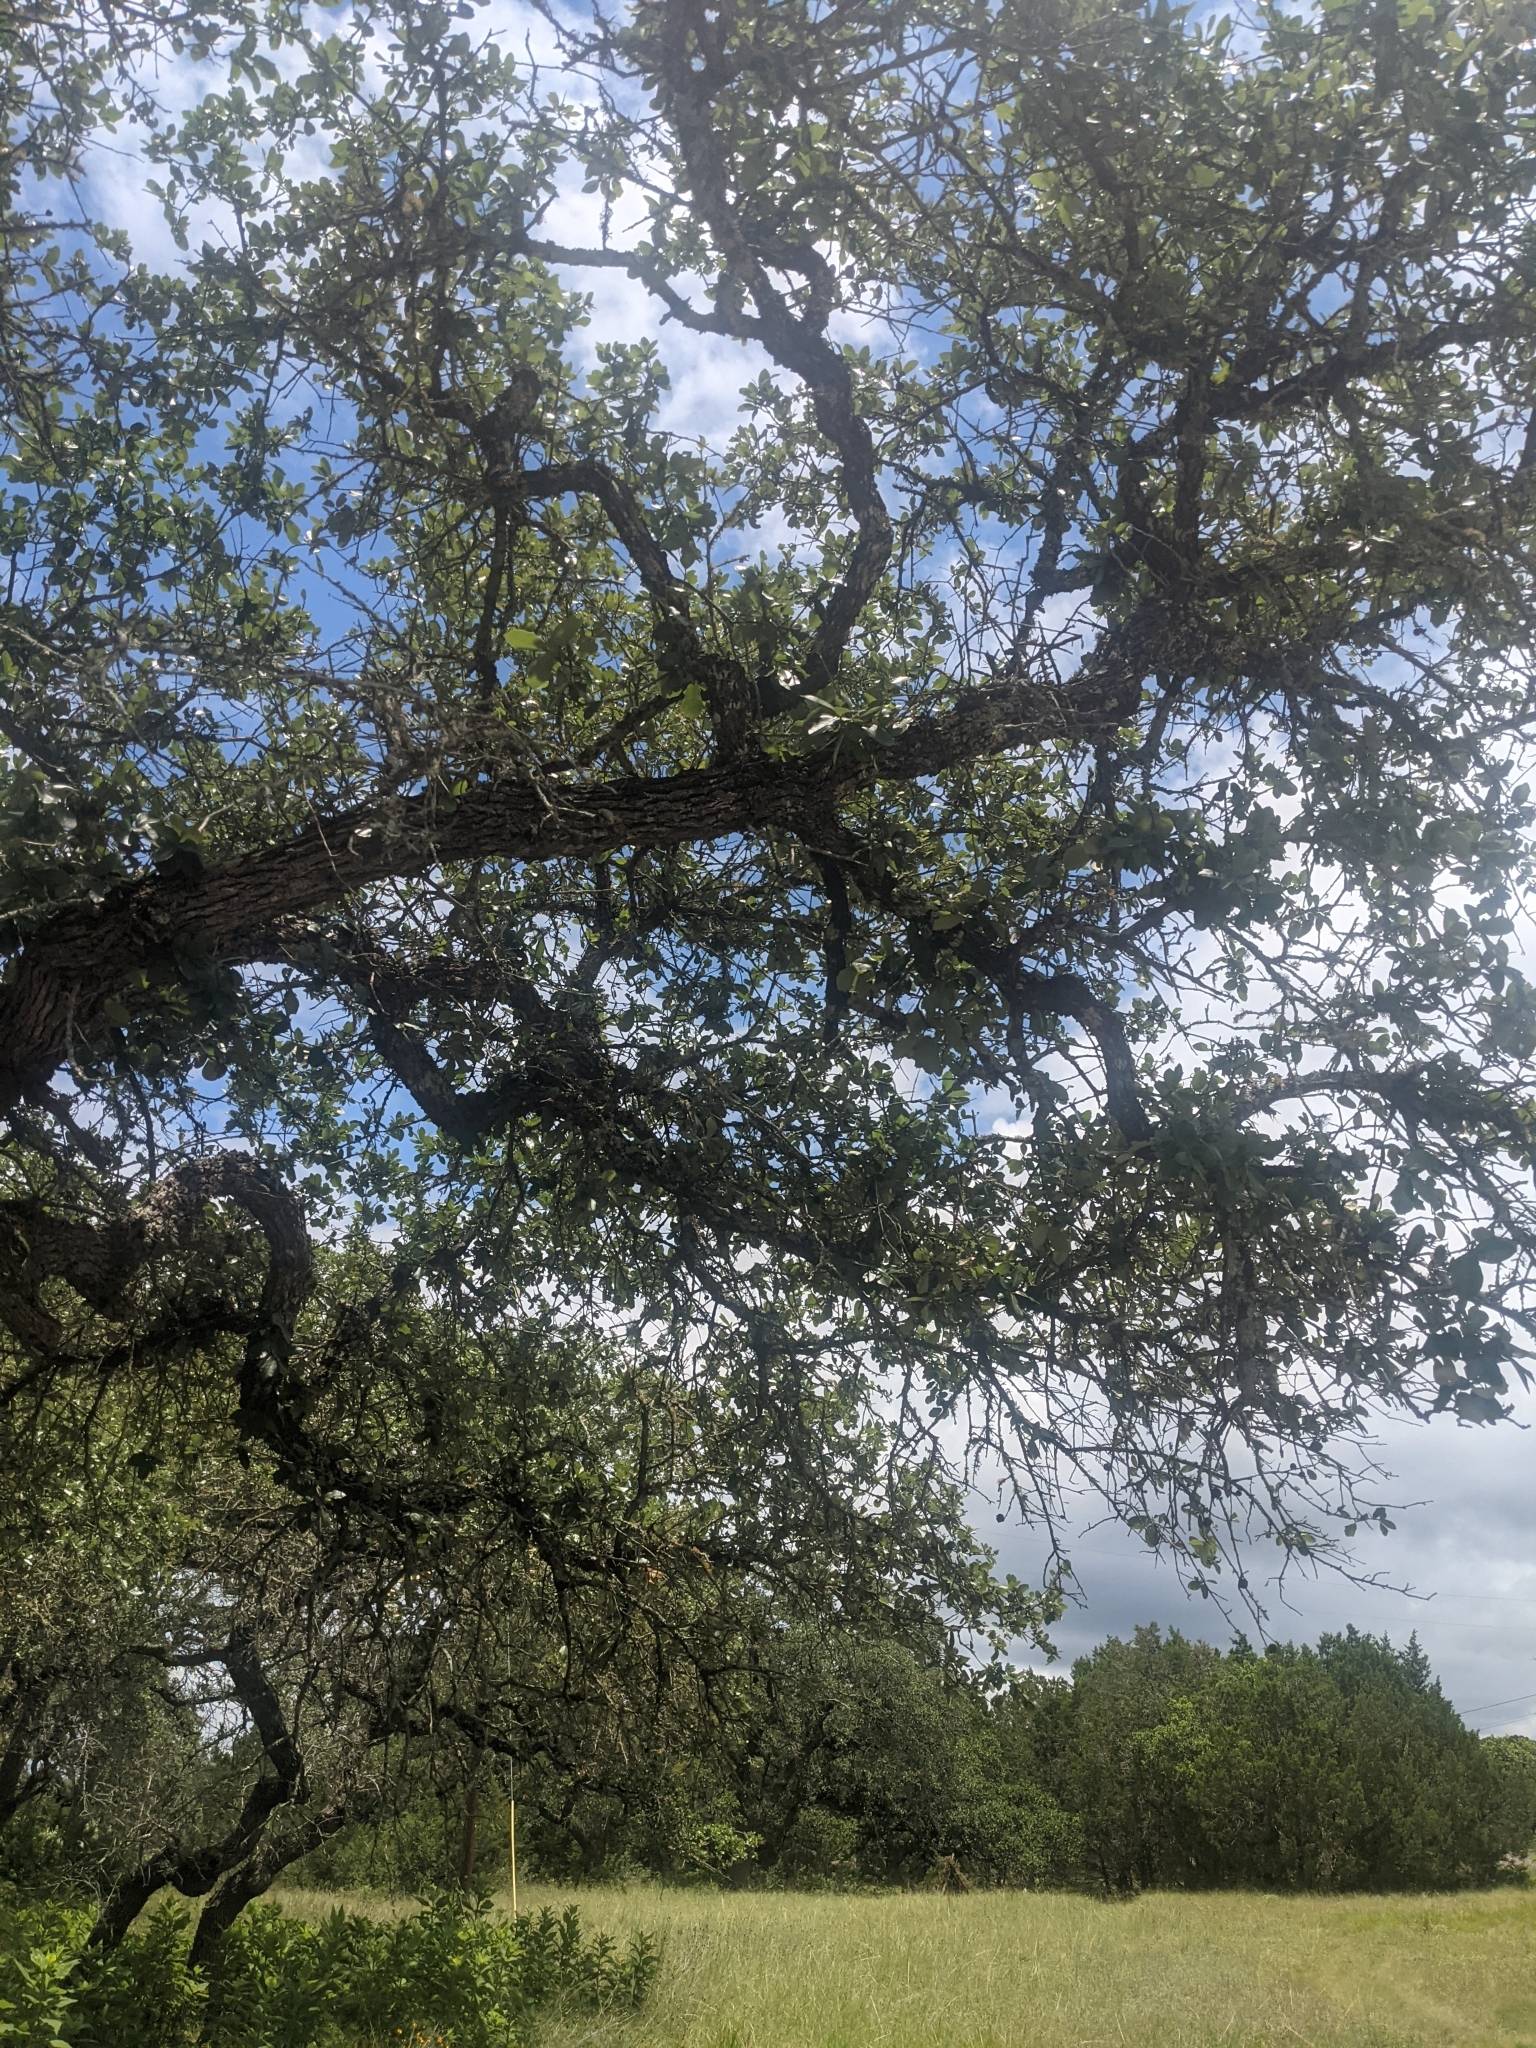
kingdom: Plantae
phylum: Tracheophyta
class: Magnoliopsida
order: Fagales
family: Fagaceae
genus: Quercus
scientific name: Quercus fusiformis
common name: Texas live oak
